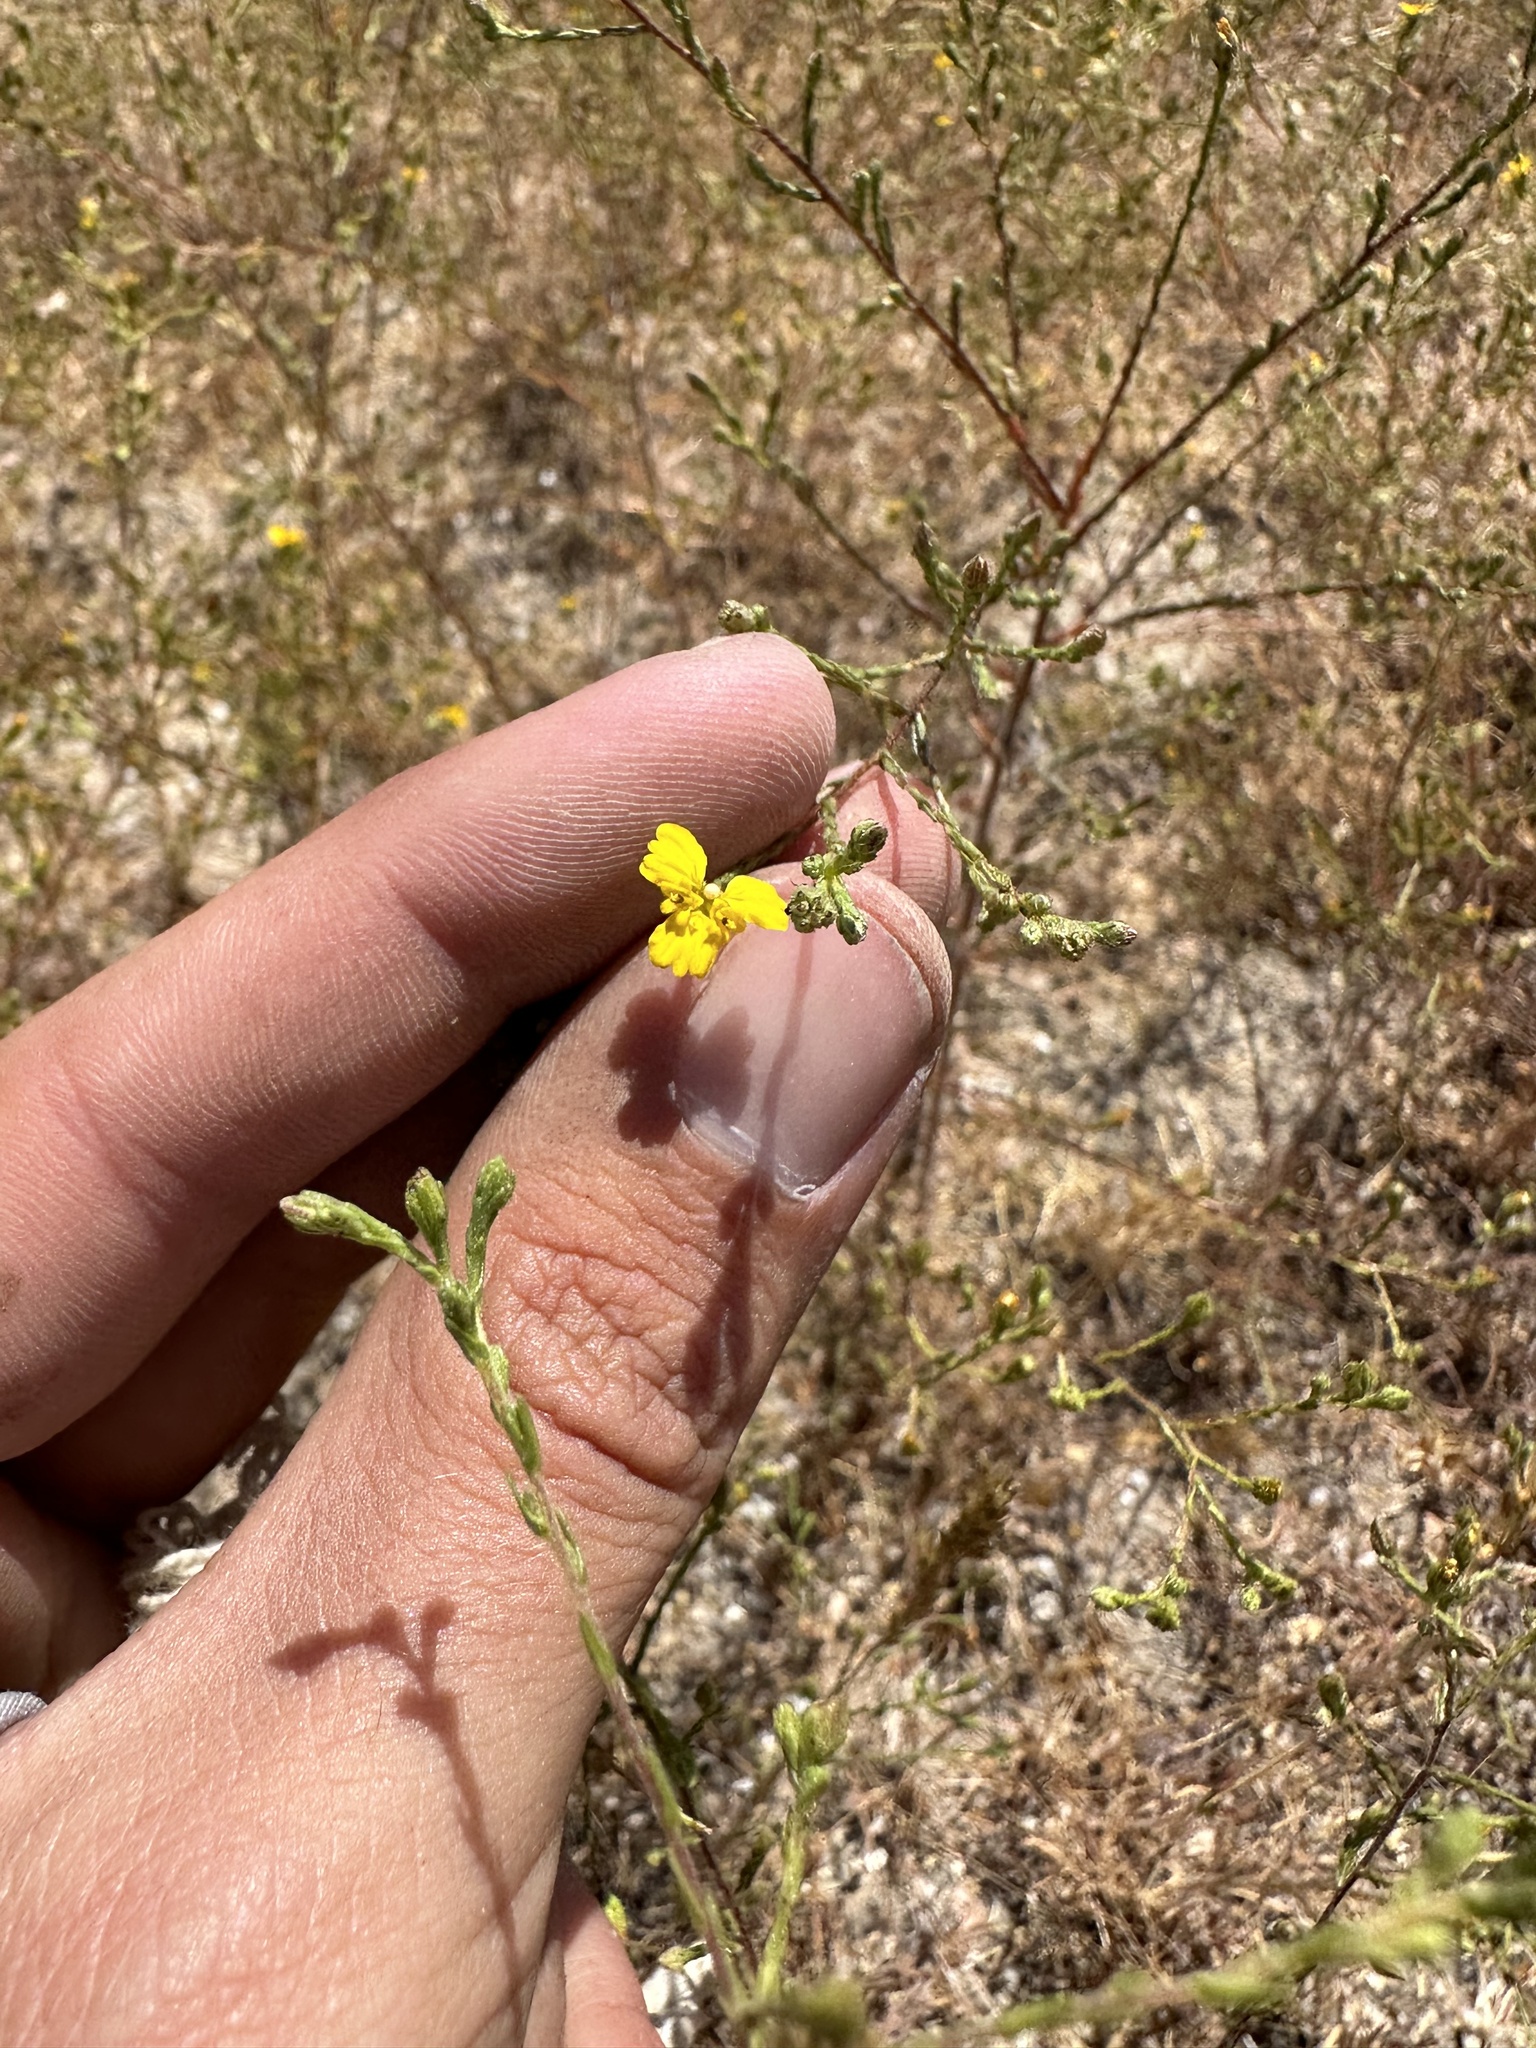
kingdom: Plantae
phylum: Tracheophyta
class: Magnoliopsida
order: Asterales
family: Asteraceae
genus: Deinandra
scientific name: Deinandra lobbii
